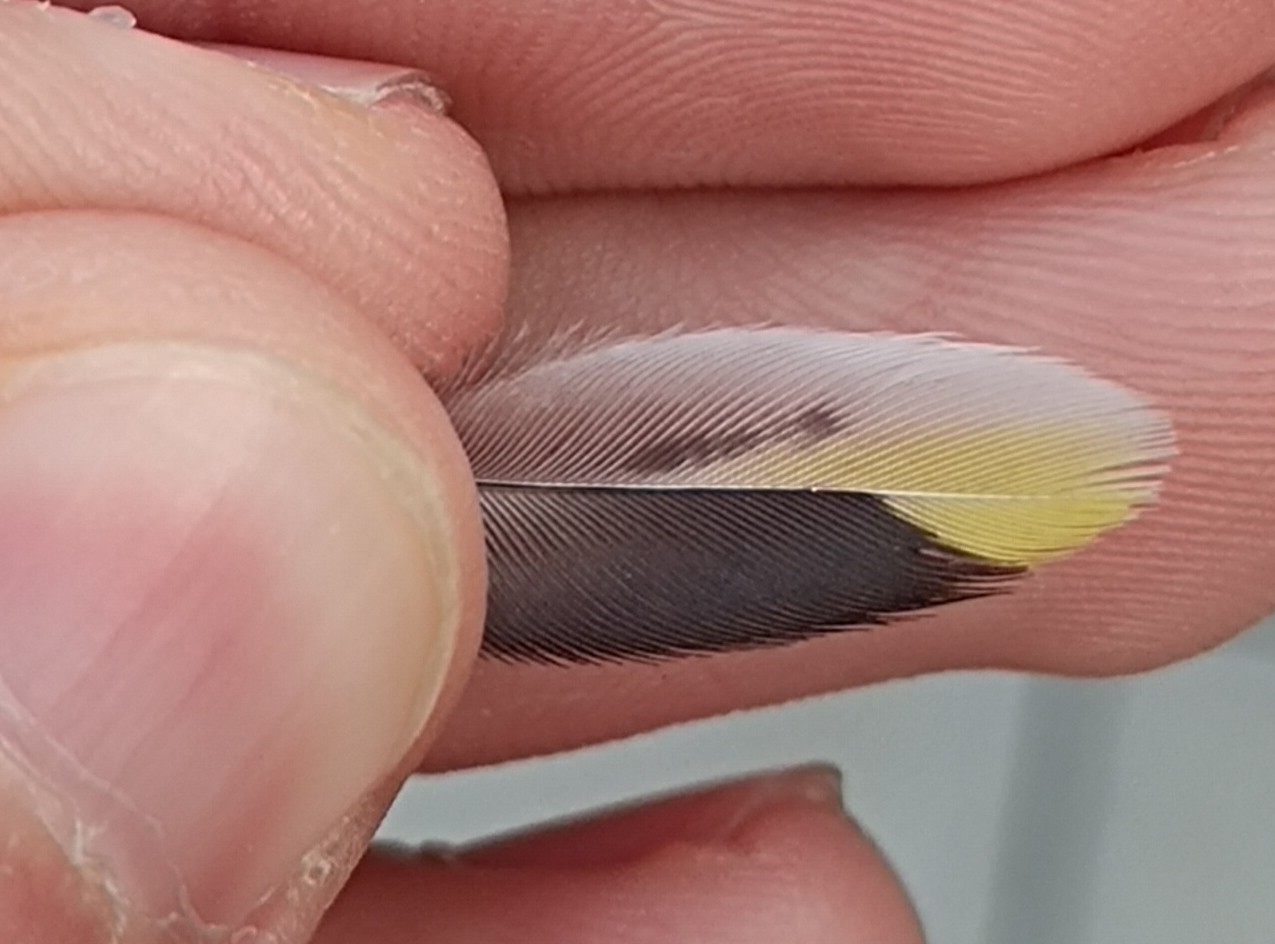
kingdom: Animalia
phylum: Chordata
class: Aves
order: Passeriformes
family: Fringillidae
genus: Carduelis
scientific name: Carduelis carduelis
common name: European goldfinch
